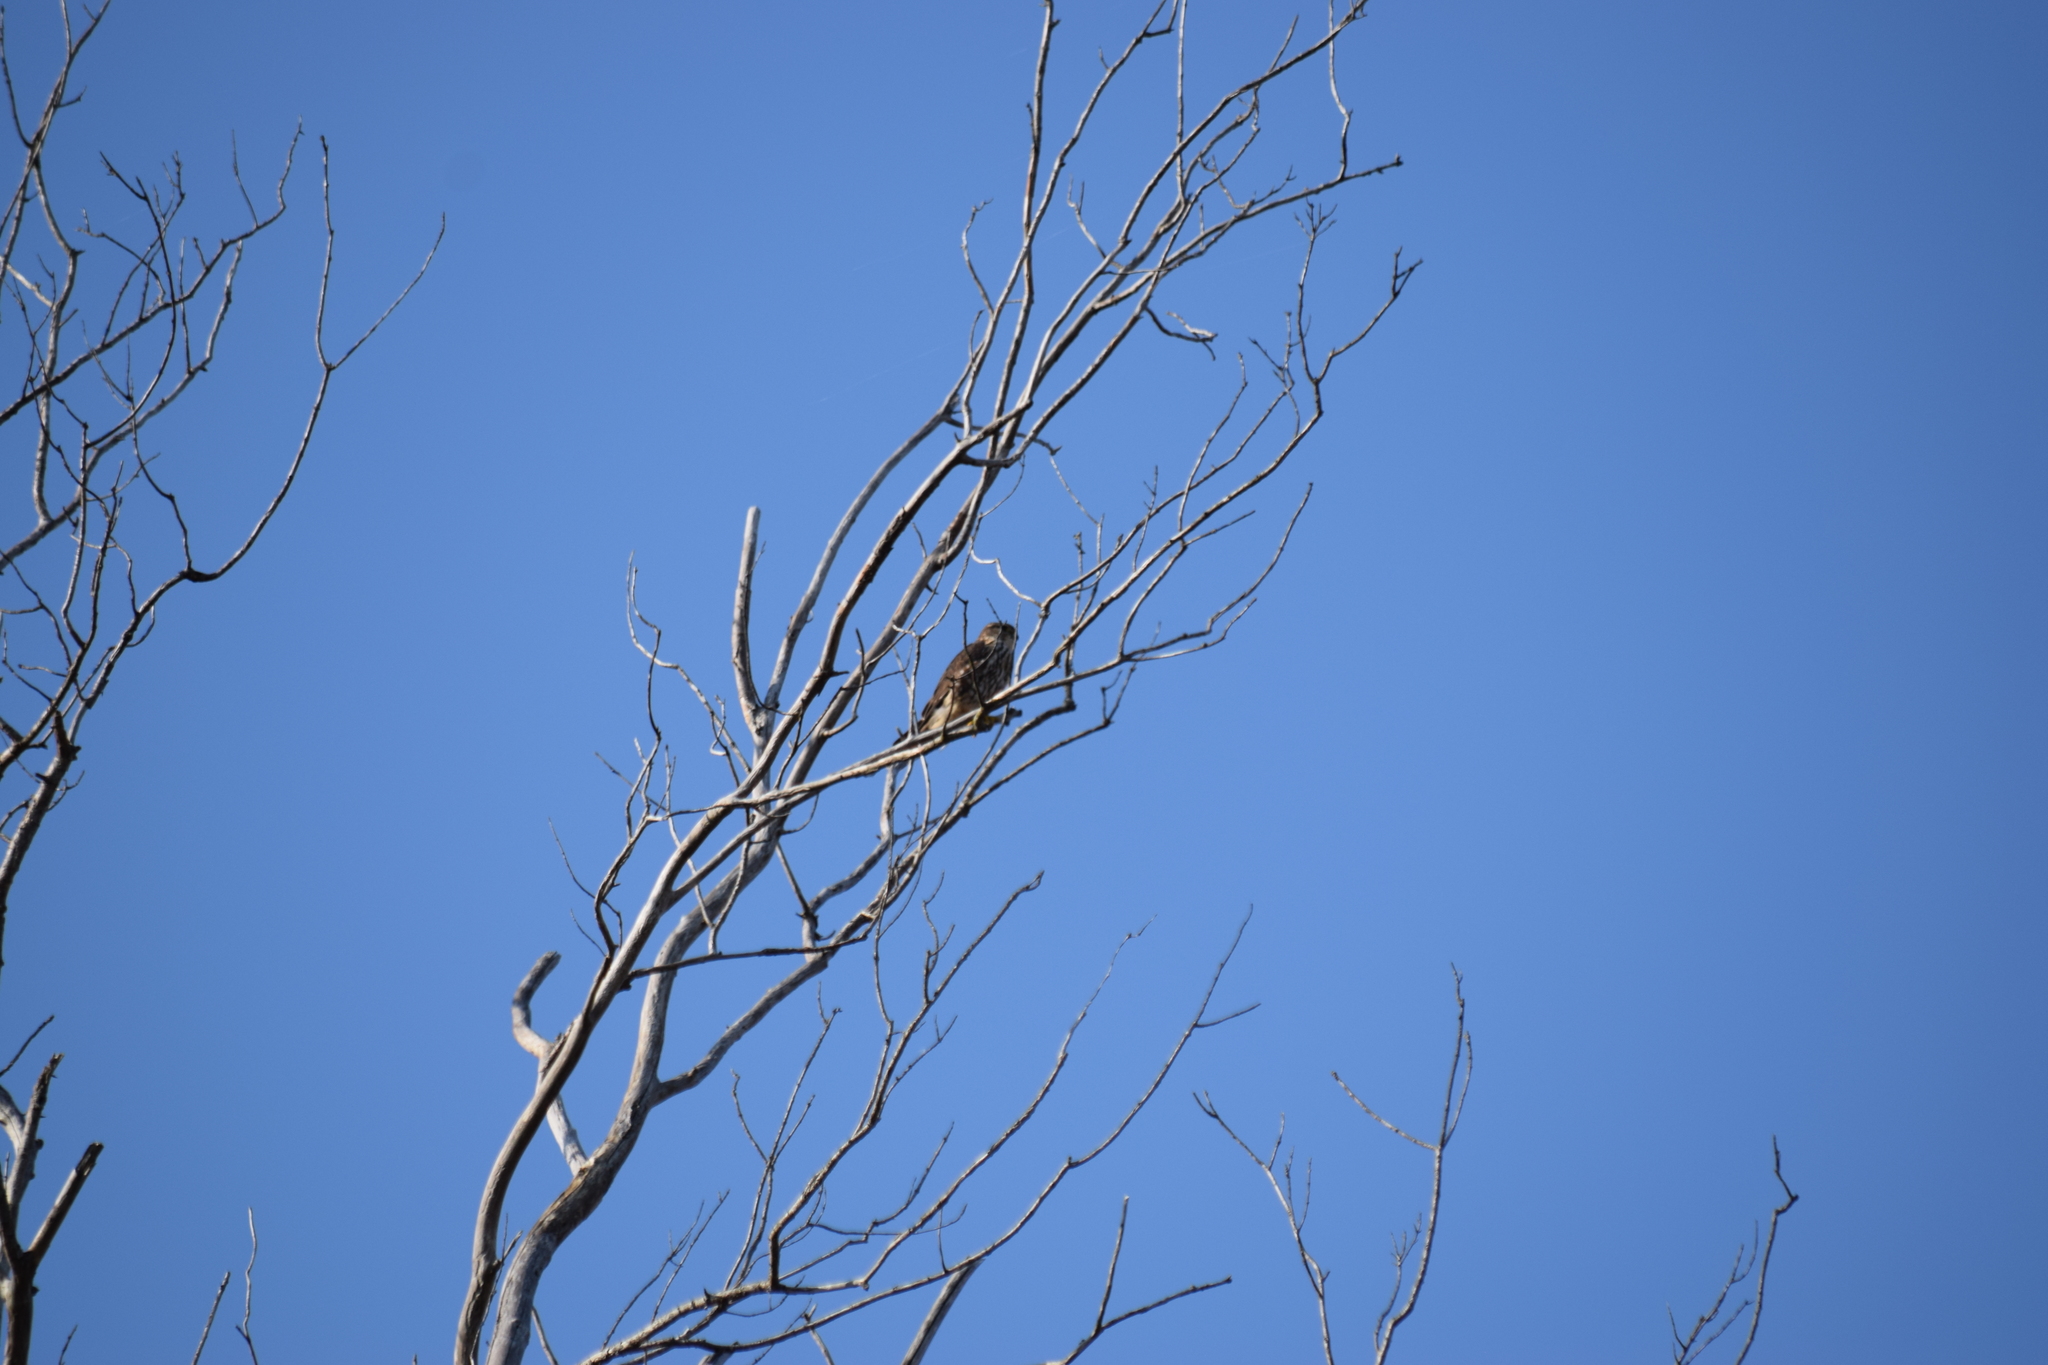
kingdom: Animalia
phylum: Chordata
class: Aves
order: Falconiformes
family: Falconidae
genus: Falco
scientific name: Falco columbarius
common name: Merlin
